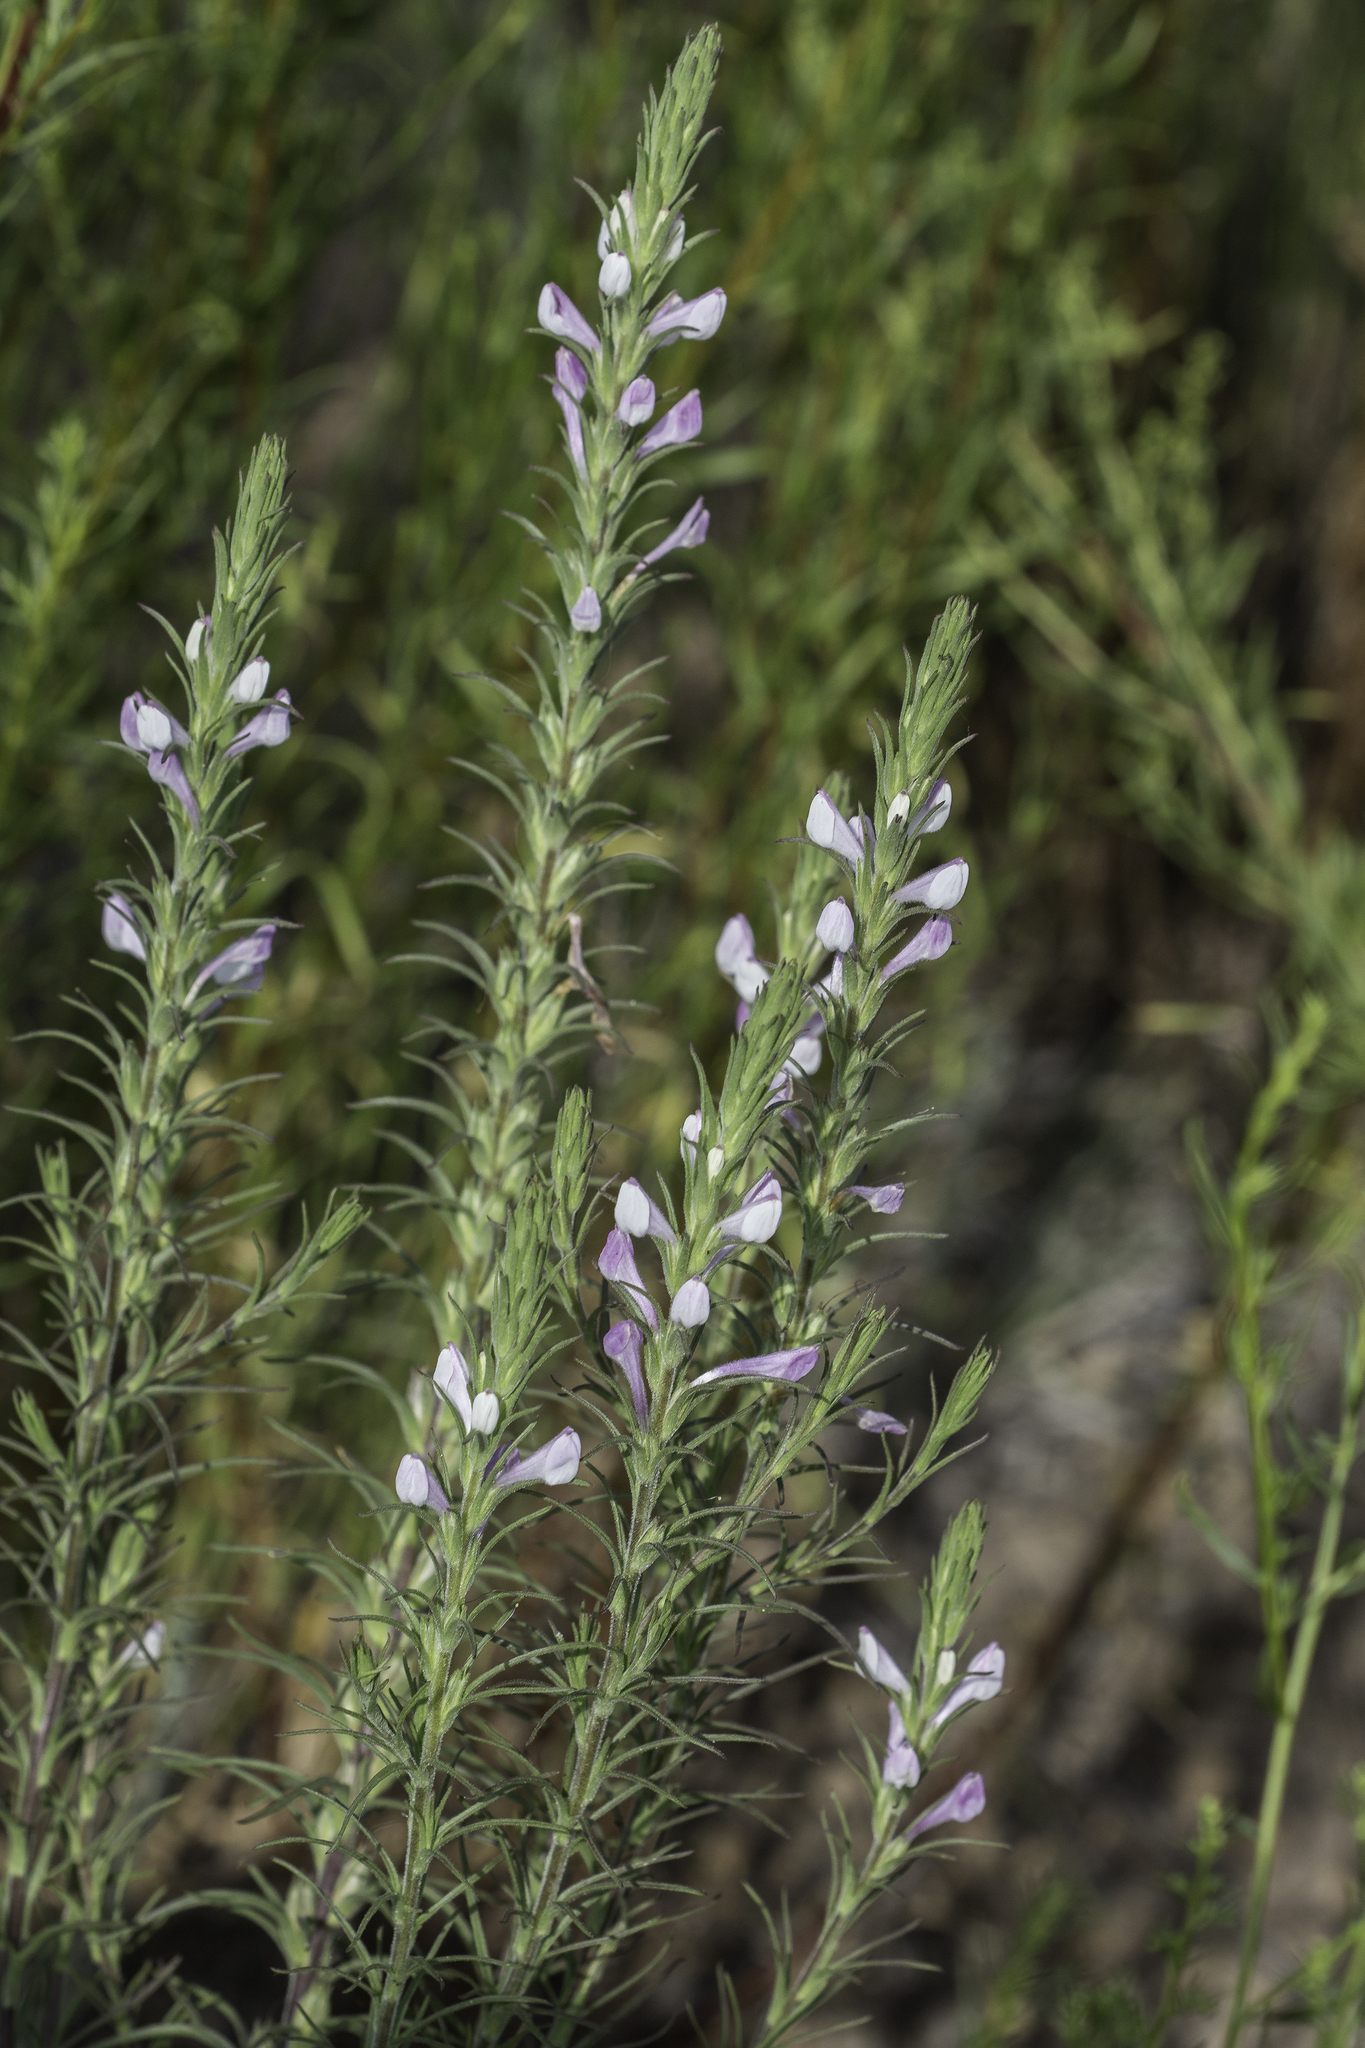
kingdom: Plantae
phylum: Tracheophyta
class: Magnoliopsida
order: Lamiales
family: Orobanchaceae
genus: Orthocarpus
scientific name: Orthocarpus purpureoalbus
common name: Violet owl-clover
